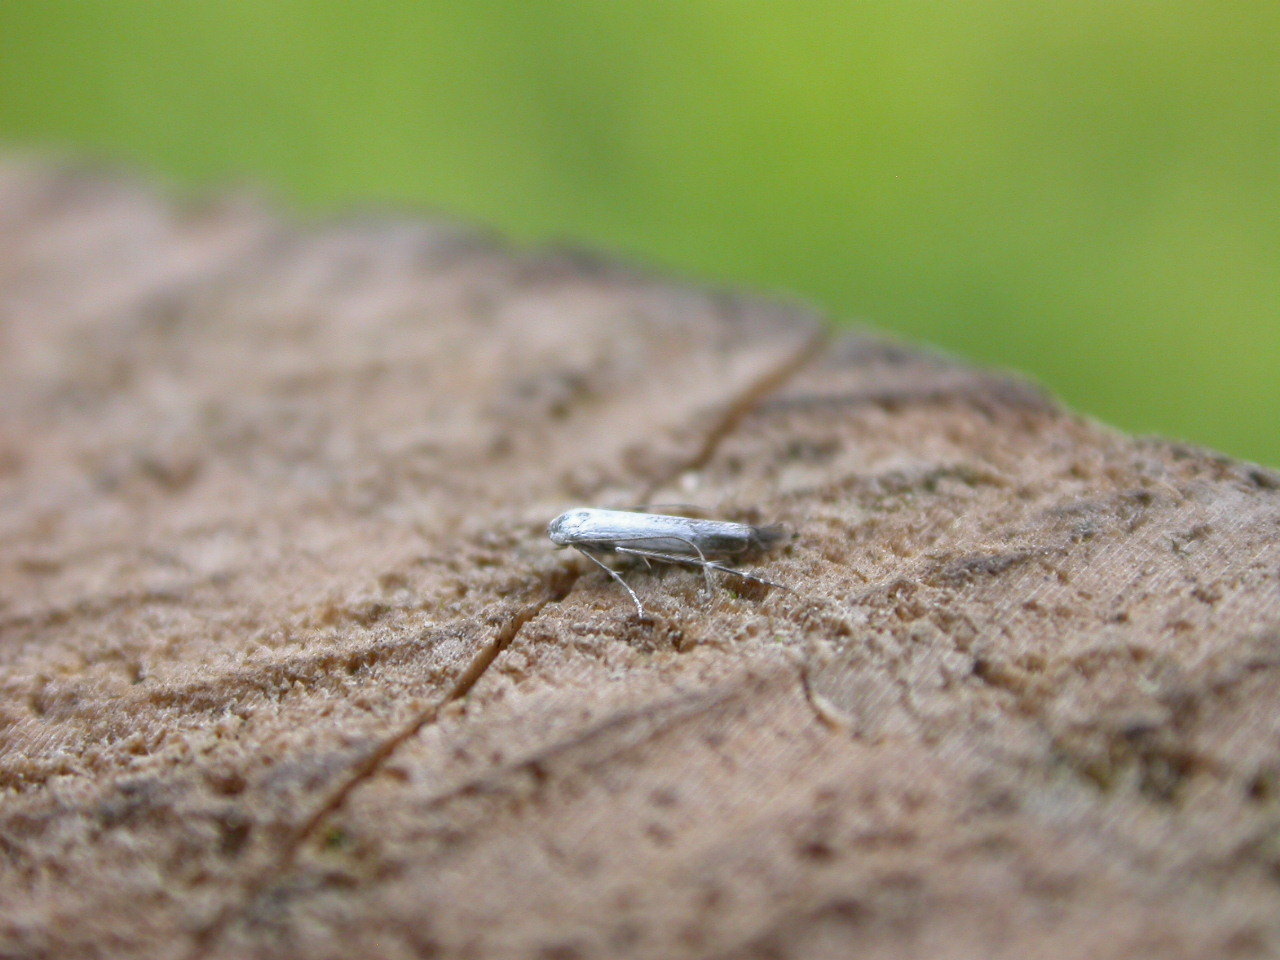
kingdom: Animalia
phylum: Arthropoda
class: Insecta
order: Lepidoptera
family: Lyonetiidae
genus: Lyonetia
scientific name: Lyonetia clerkella
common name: Apple leaf miner
